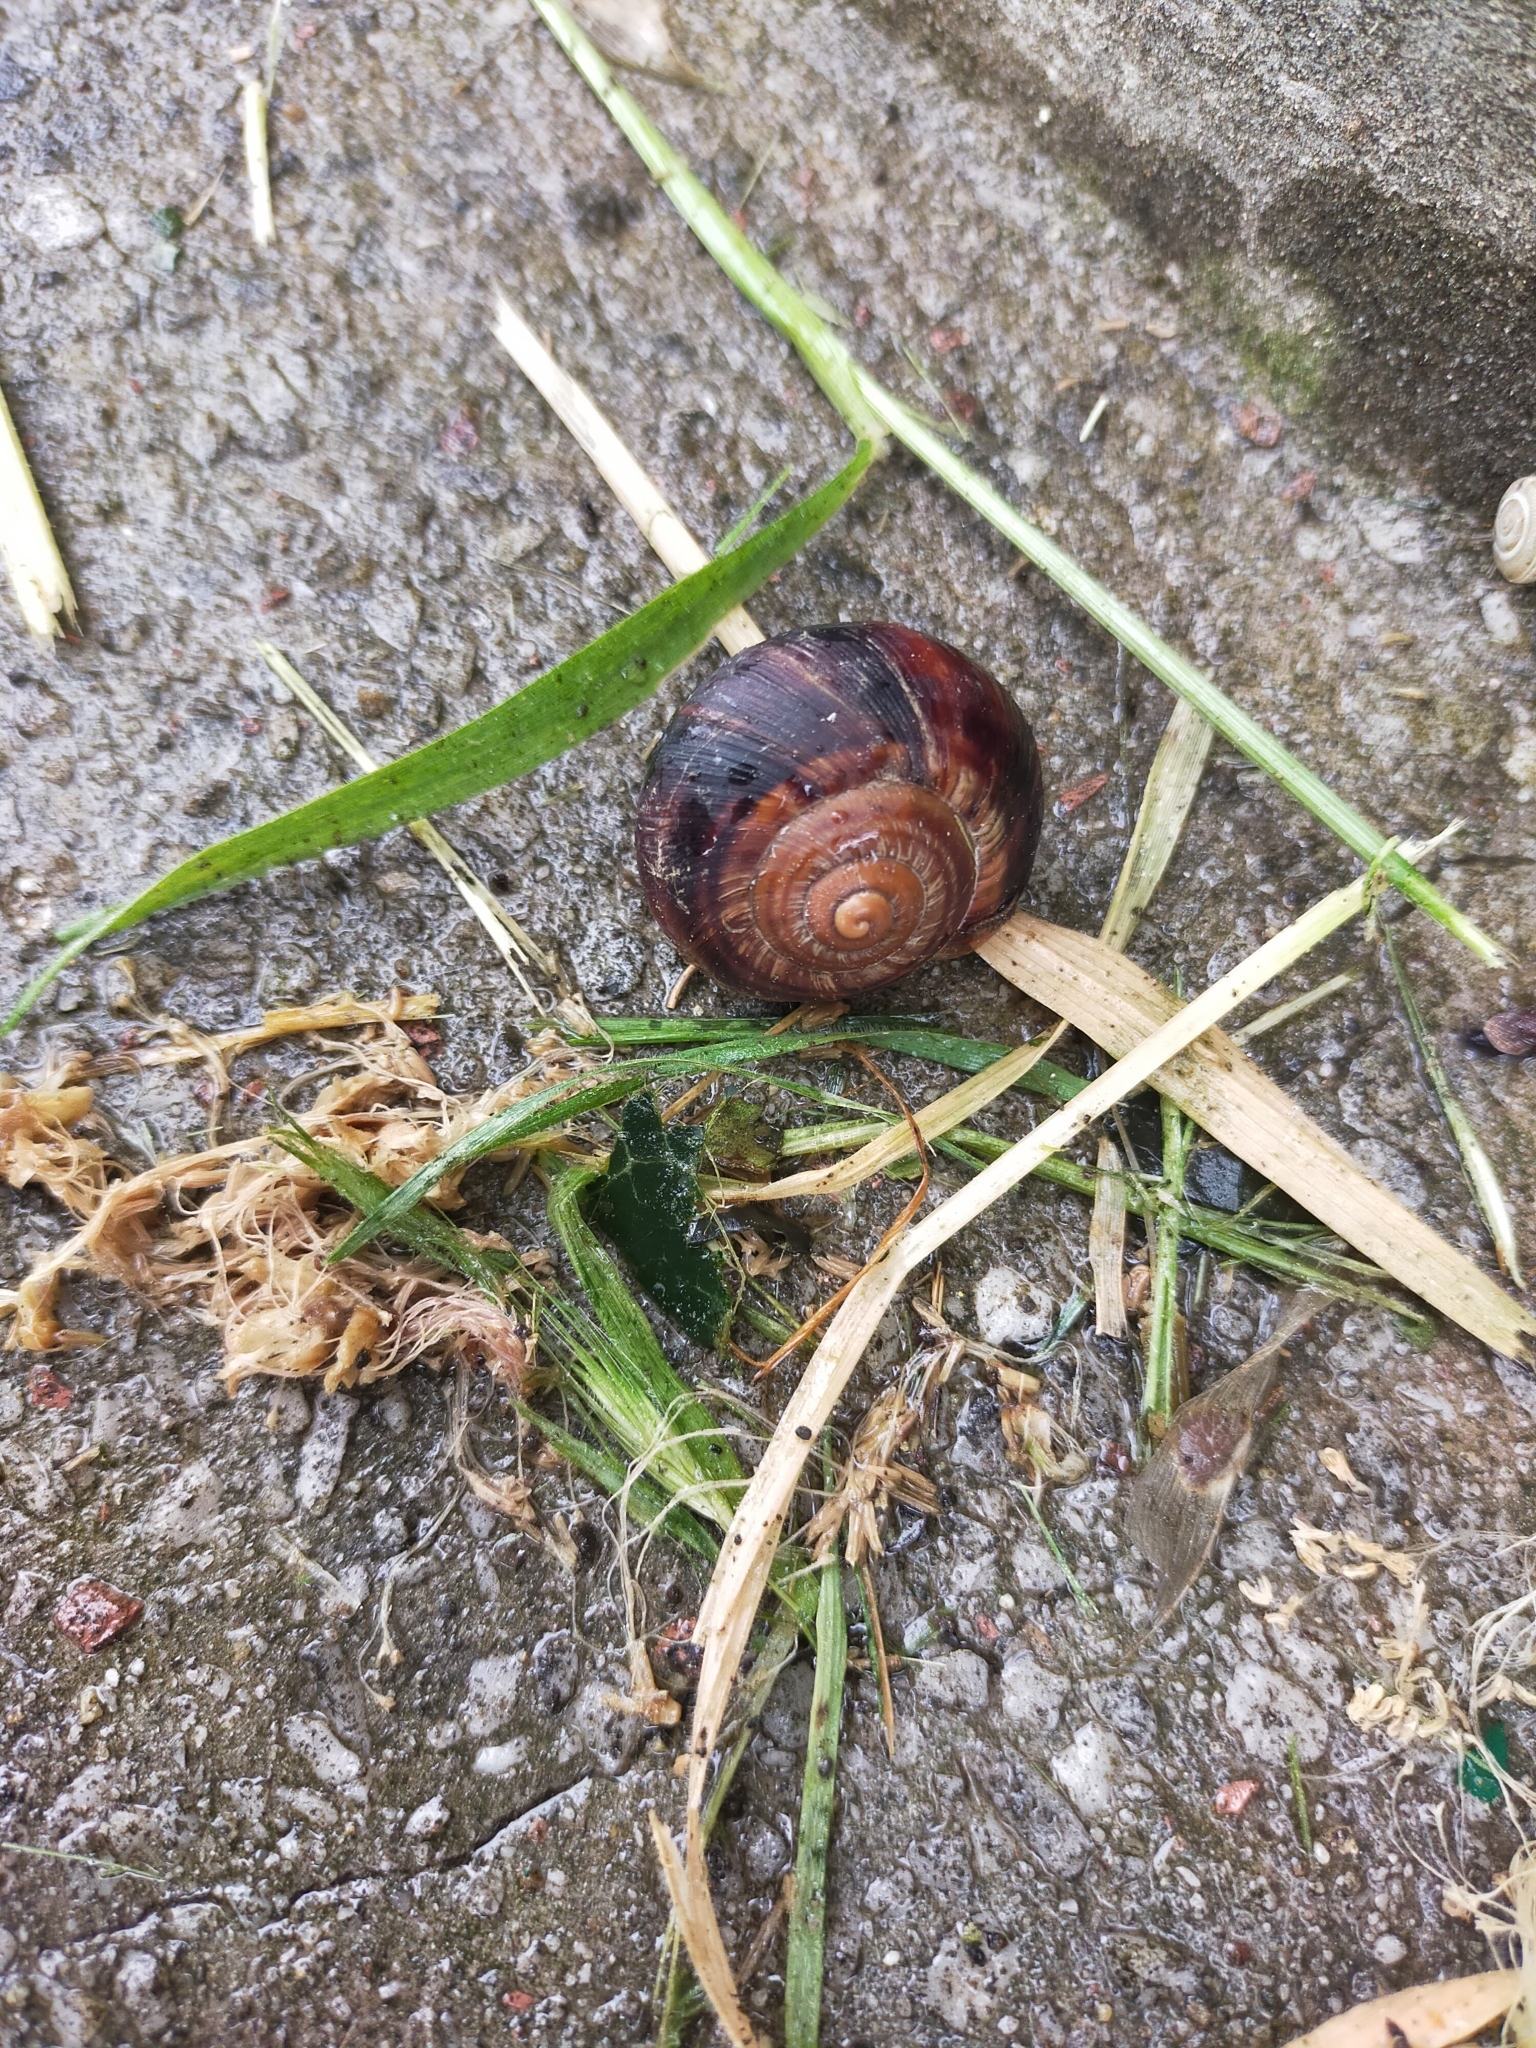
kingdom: Animalia
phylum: Mollusca
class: Gastropoda
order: Stylommatophora
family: Helicidae
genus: Helix
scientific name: Helix lucorum
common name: Turkish snail
